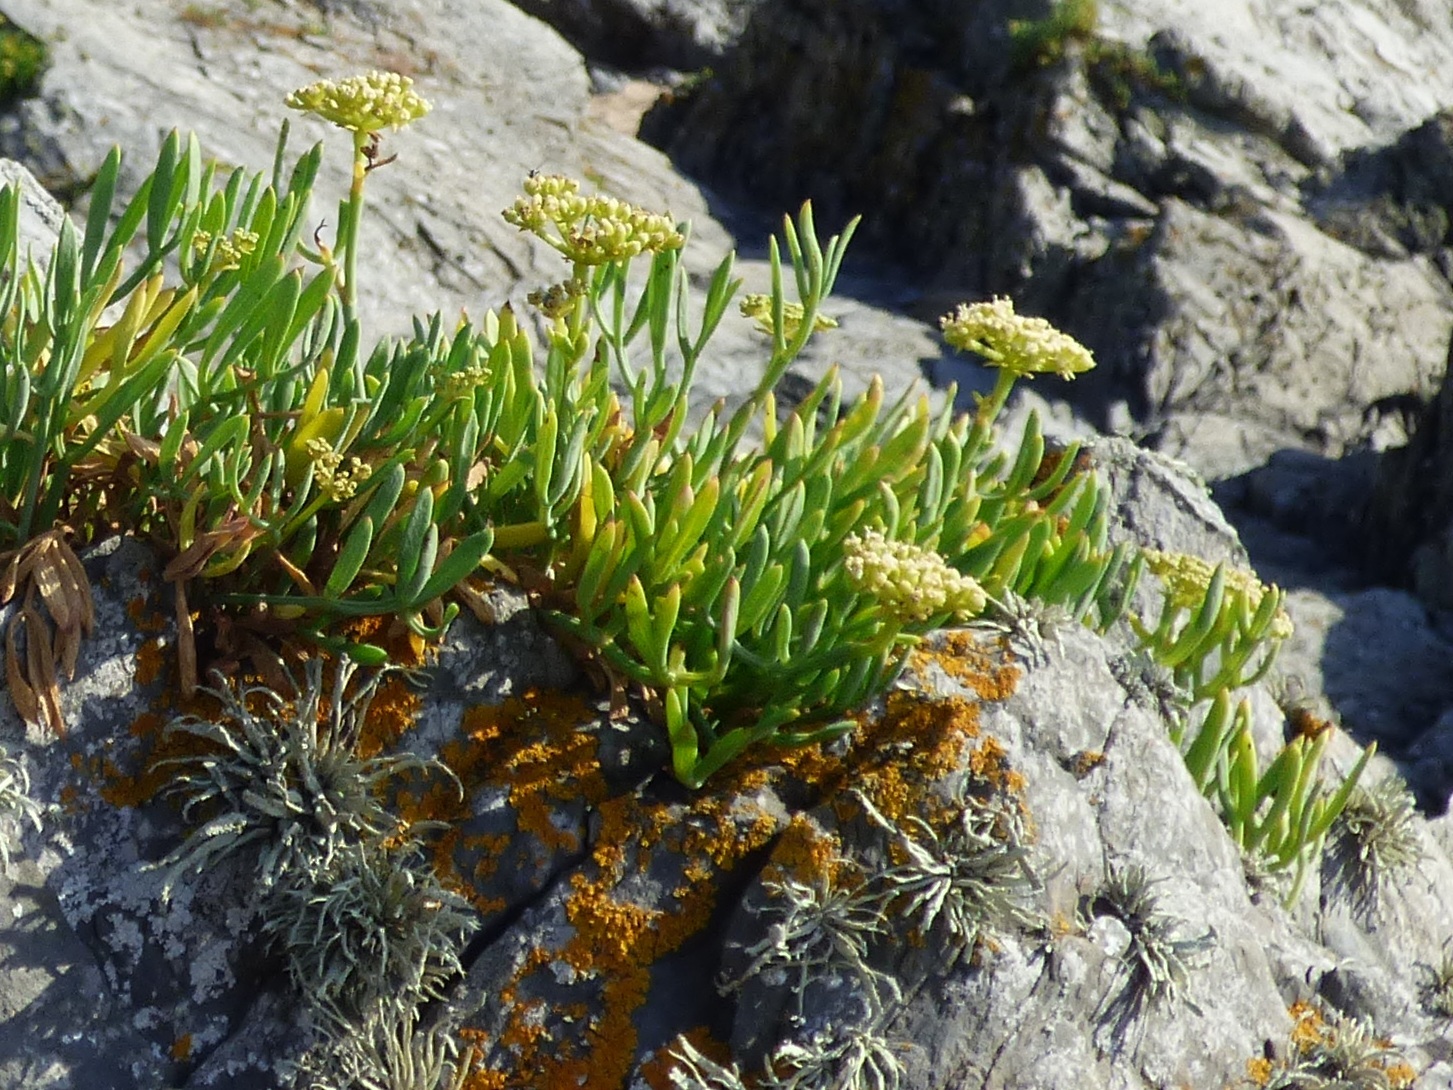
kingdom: Plantae
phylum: Tracheophyta
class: Magnoliopsida
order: Apiales
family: Apiaceae
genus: Crithmum
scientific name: Crithmum maritimum
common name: Rock samphire
